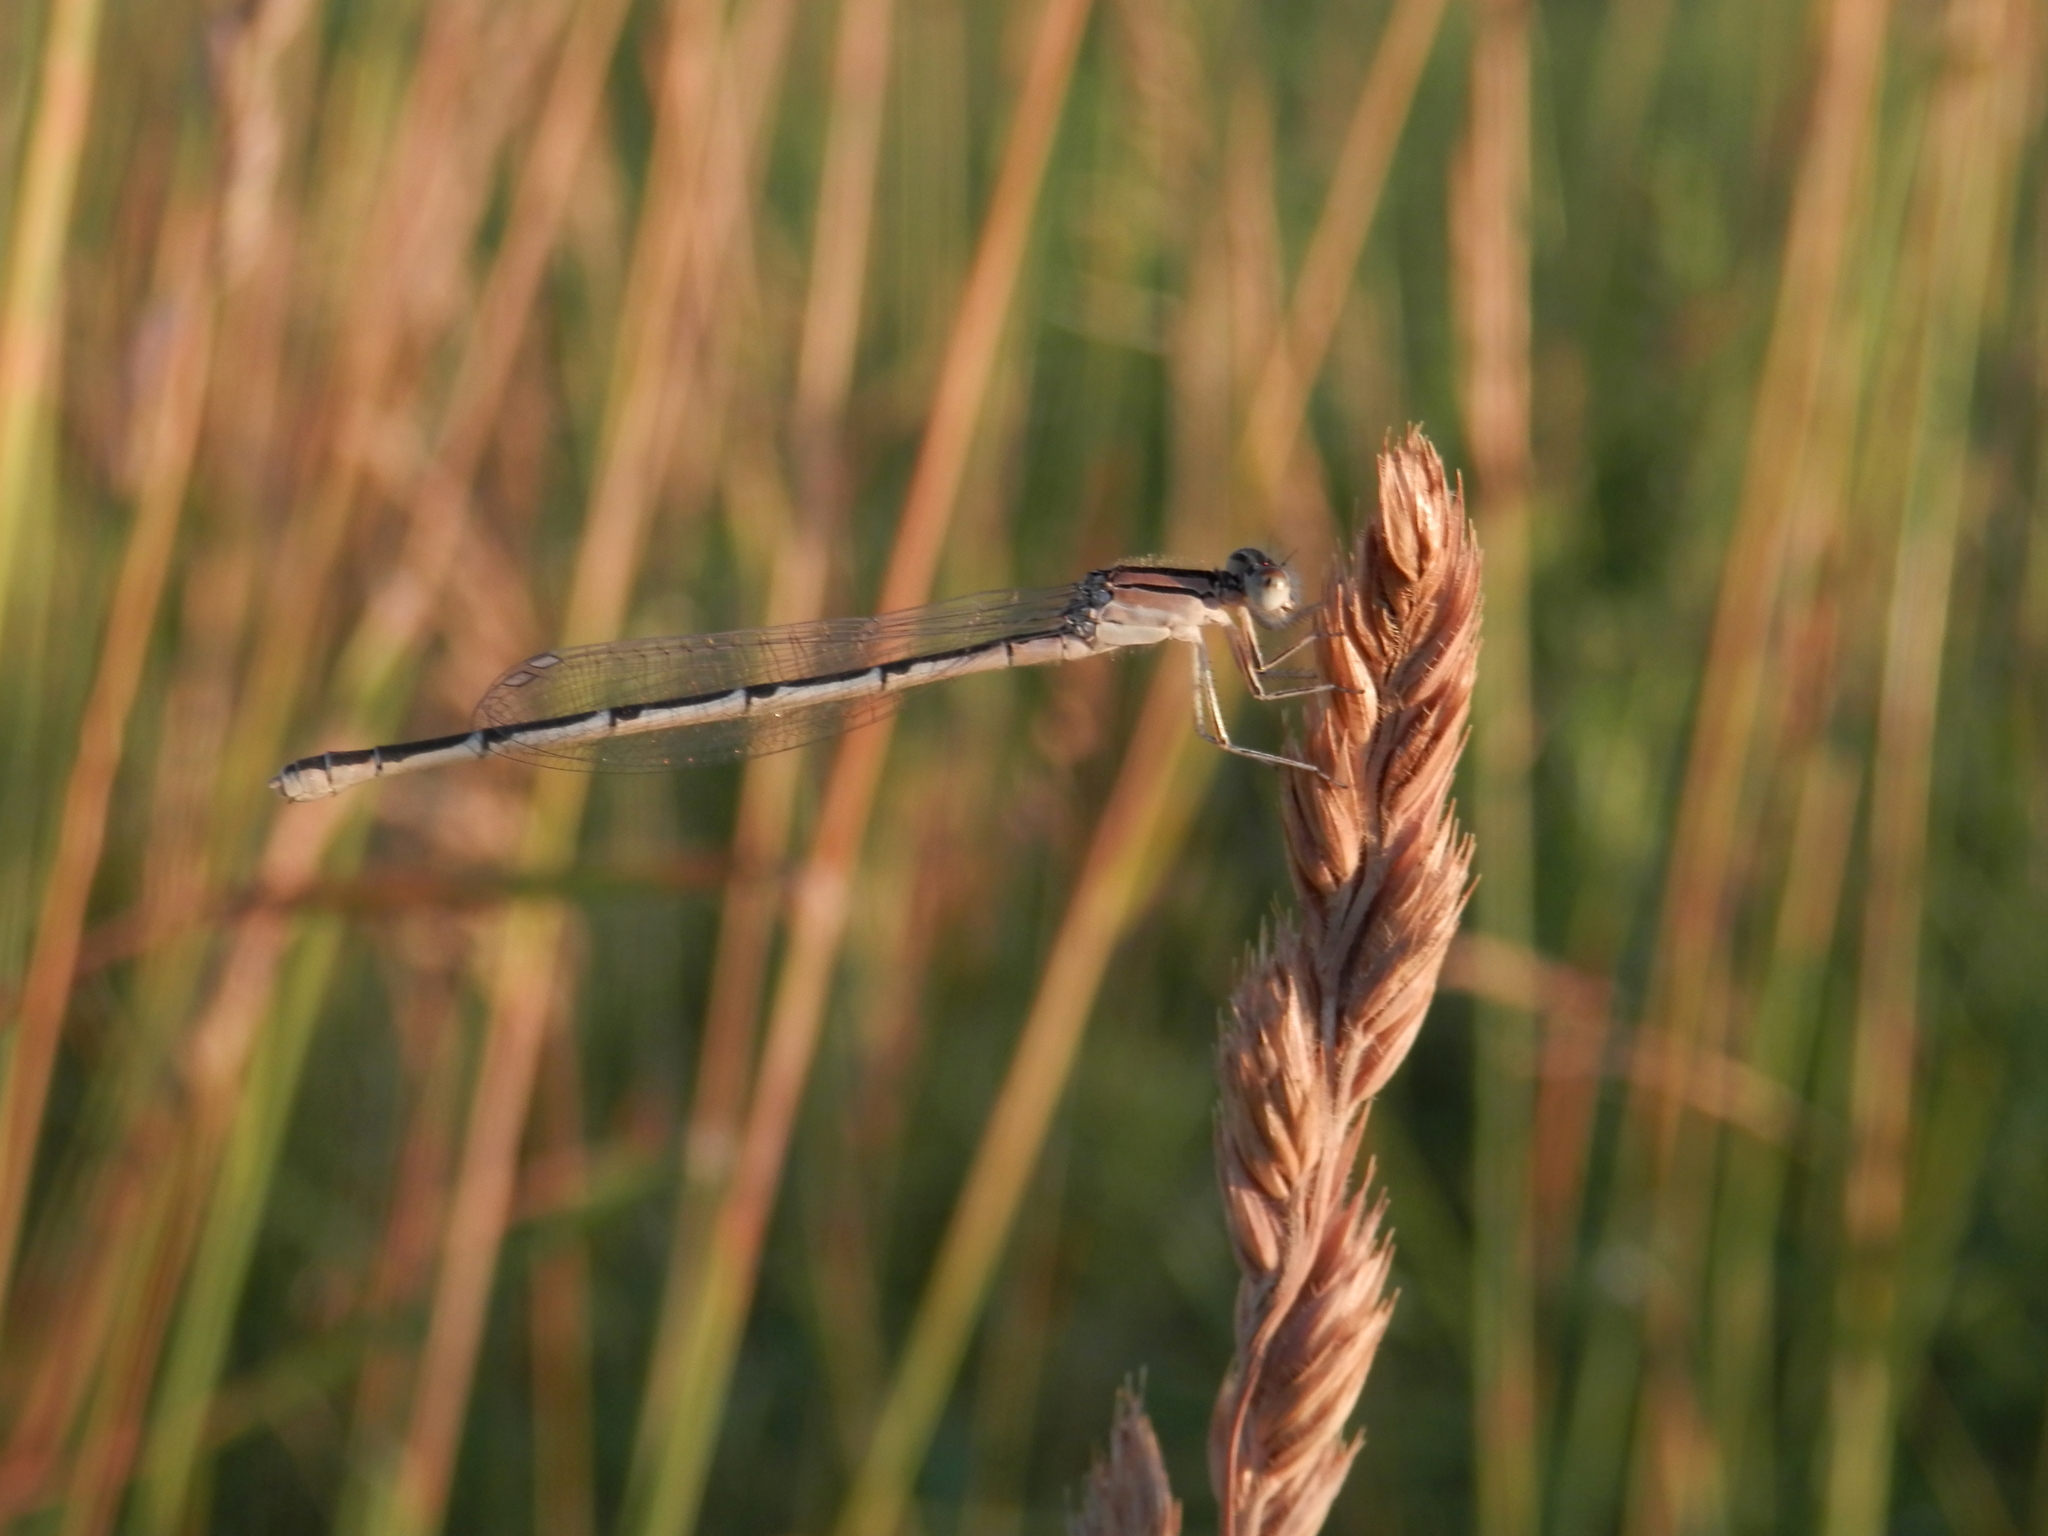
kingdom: Plantae
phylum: Tracheophyta
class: Liliopsida
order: Poales
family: Poaceae
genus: Dactylis
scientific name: Dactylis glomerata
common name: Orchardgrass
